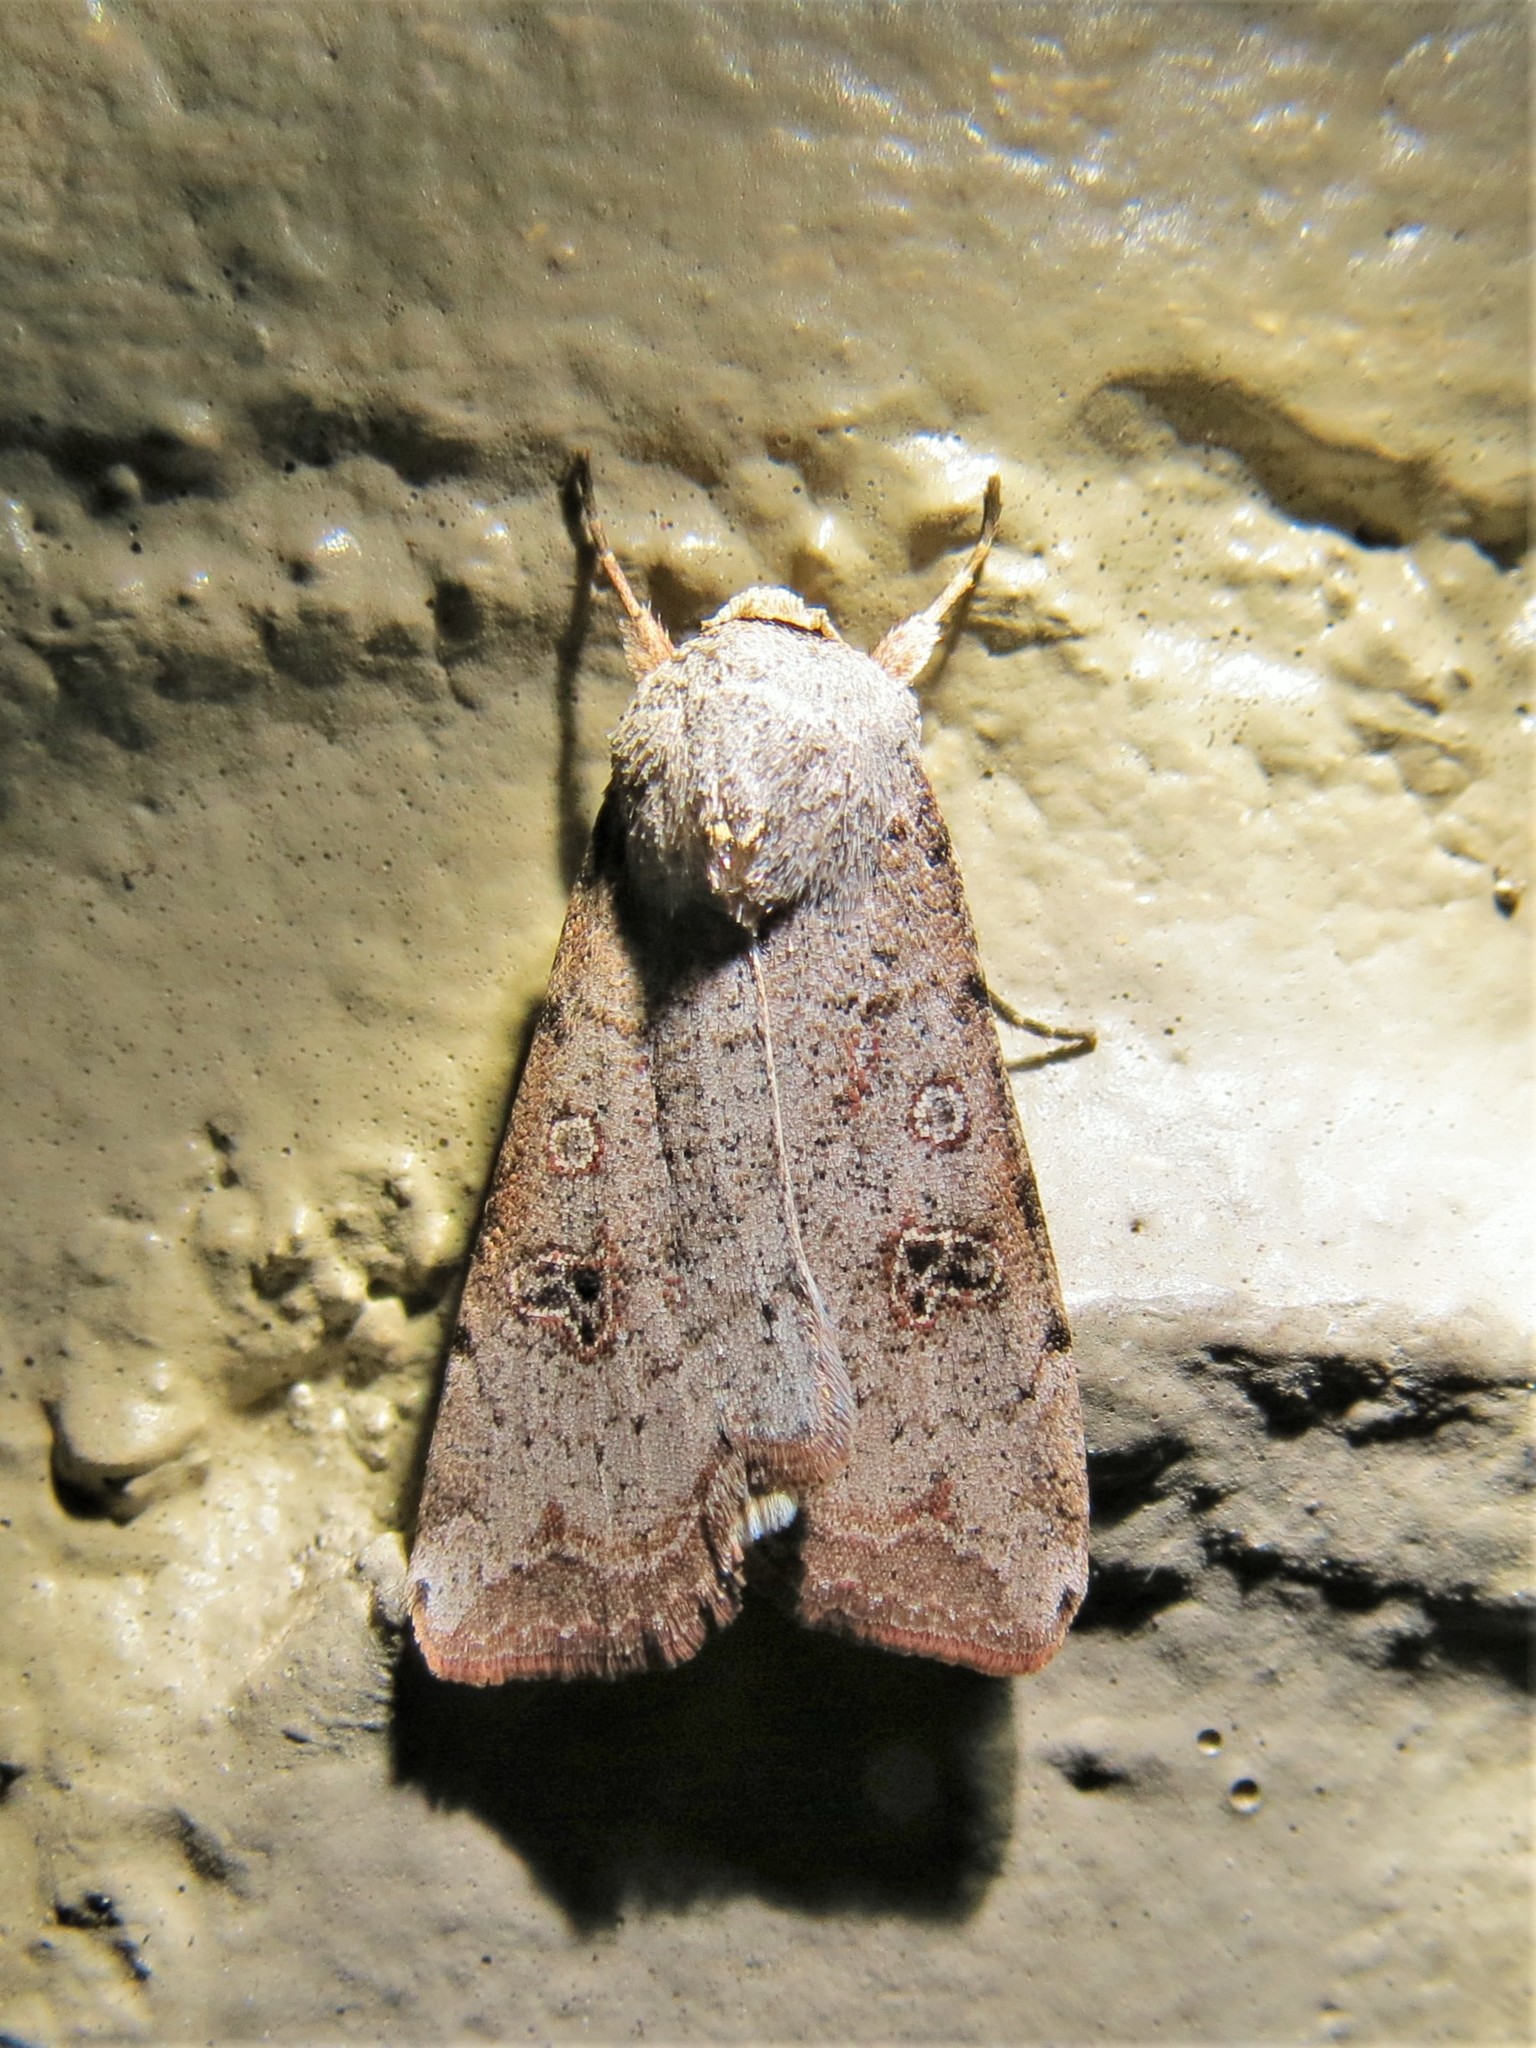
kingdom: Animalia
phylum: Arthropoda
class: Insecta
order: Lepidoptera
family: Noctuidae
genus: Anicla
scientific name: Anicla infecta
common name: Green cutworm
